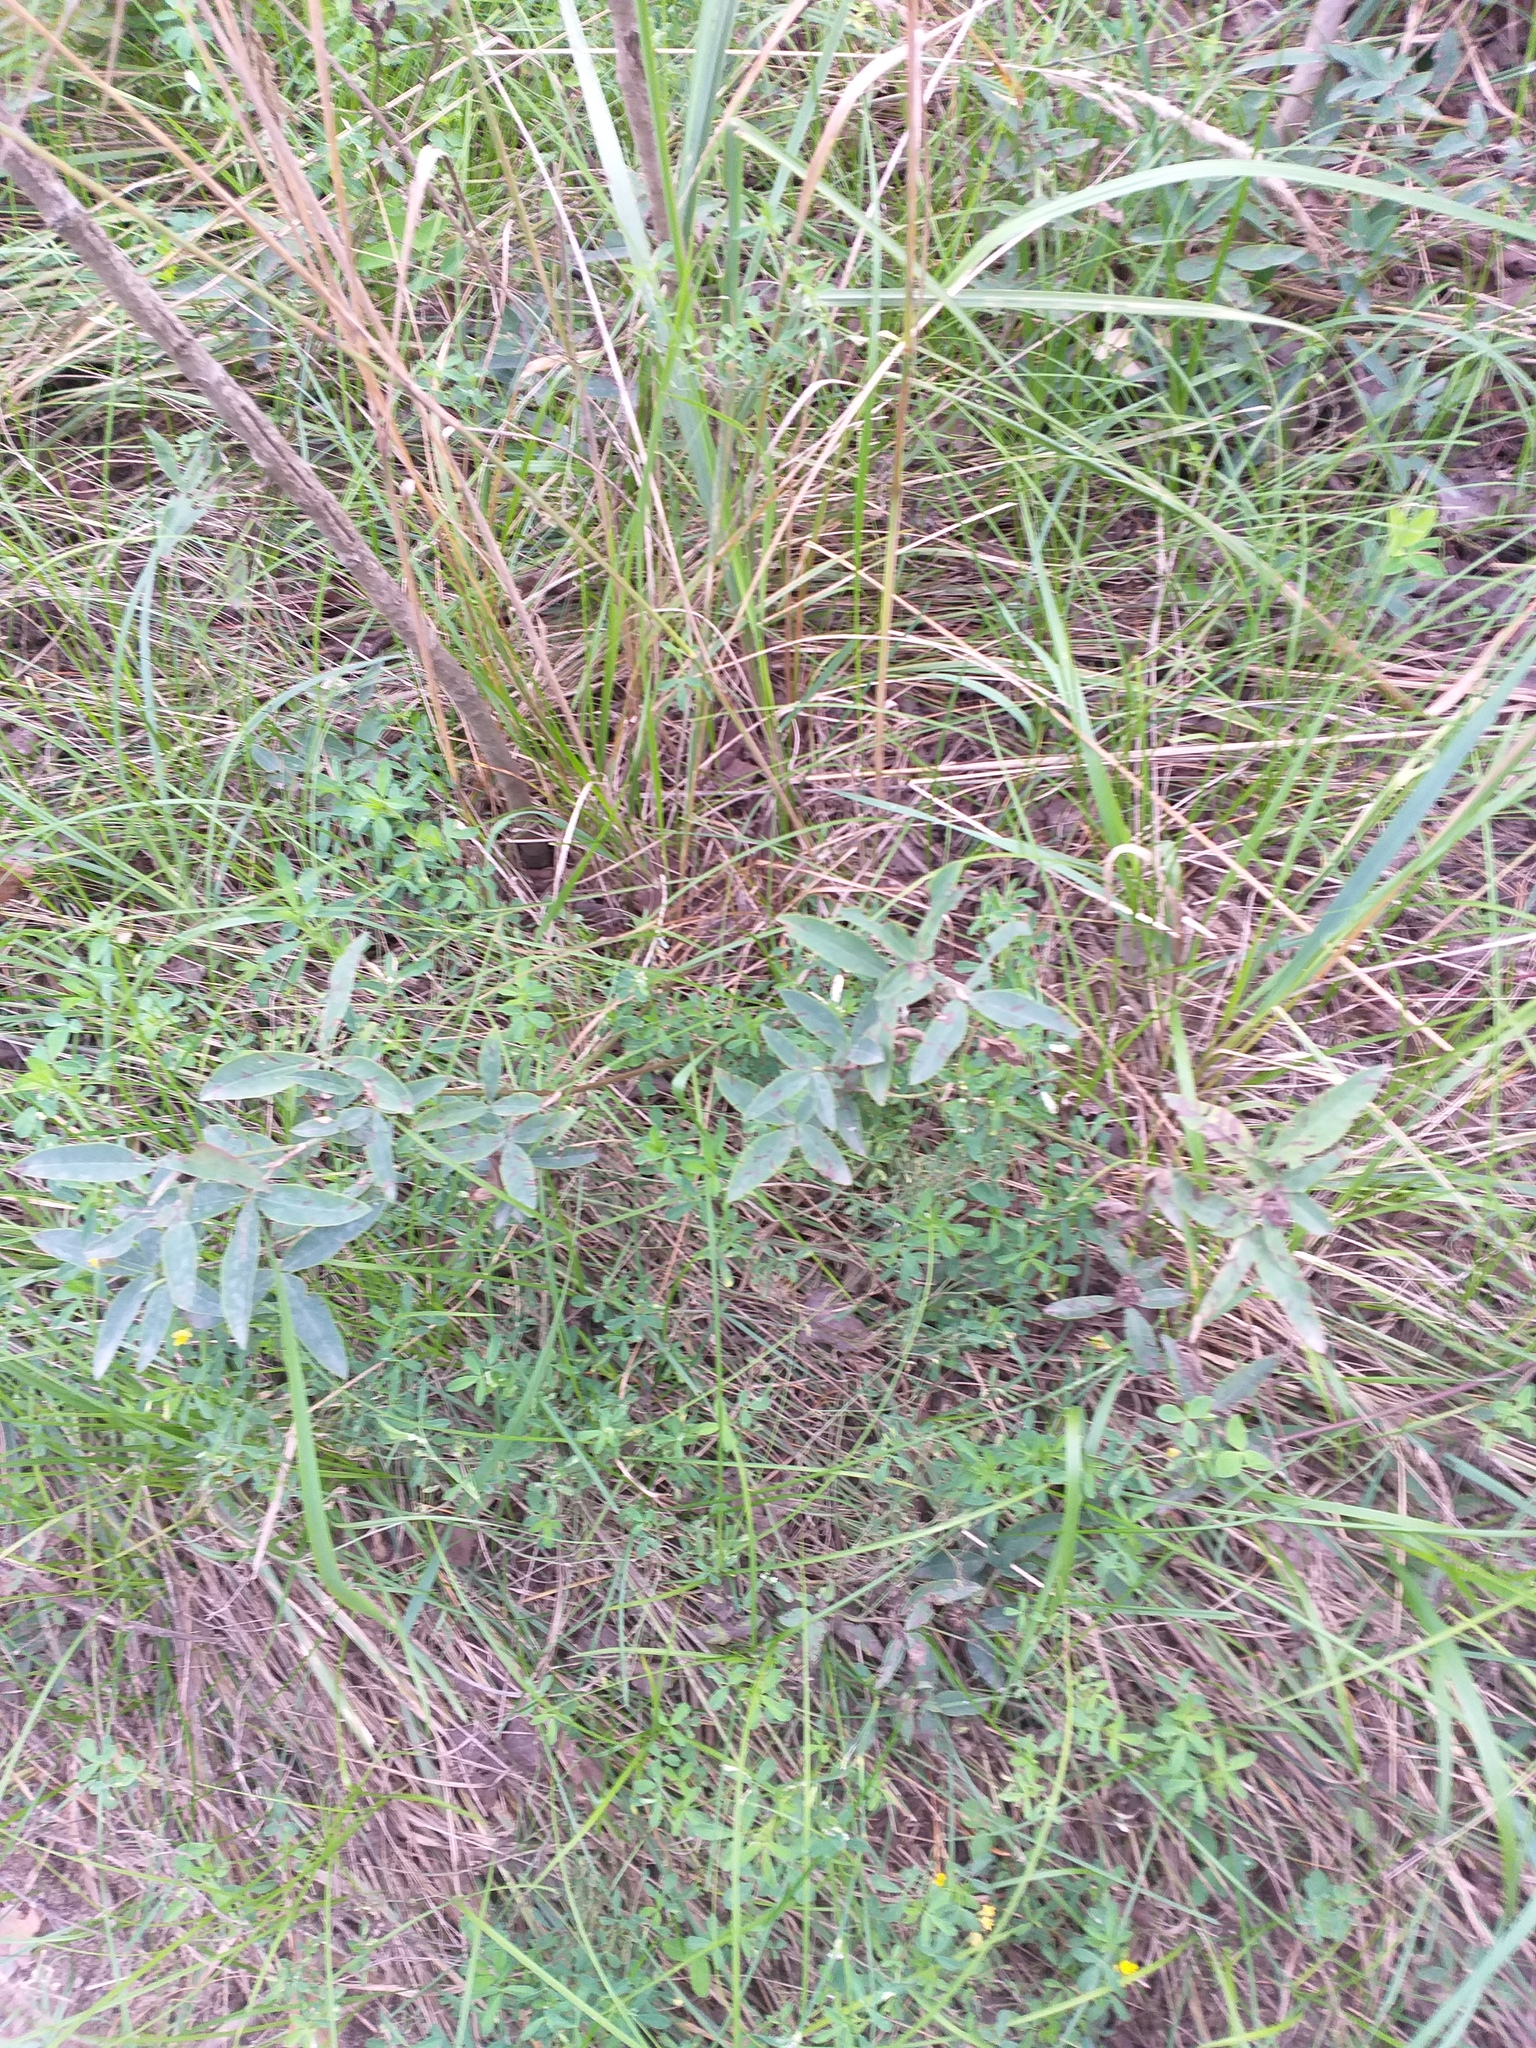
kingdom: Plantae
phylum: Tracheophyta
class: Magnoliopsida
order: Fabales
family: Fabaceae
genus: Chamaecytisus
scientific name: Chamaecytisus ruthenicus
